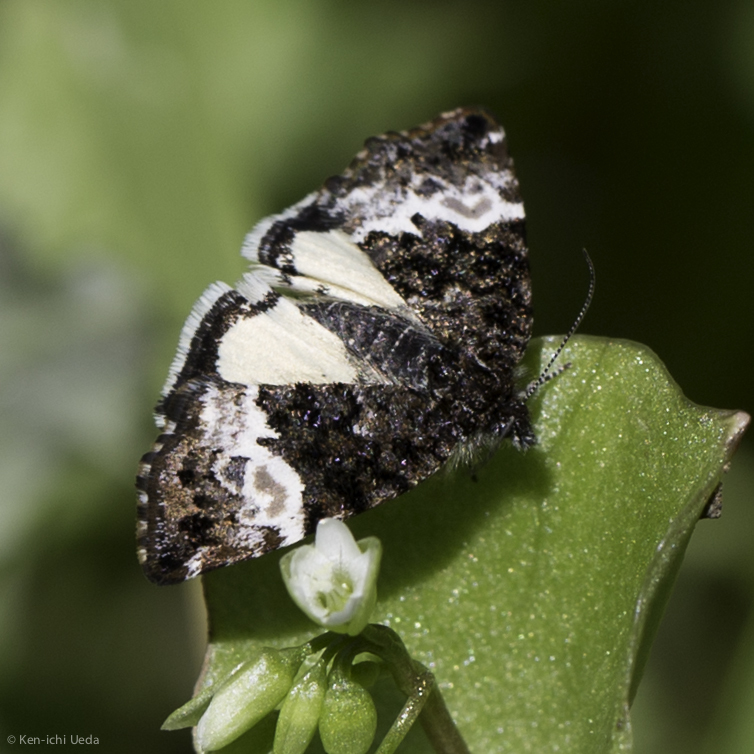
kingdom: Animalia
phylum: Arthropoda
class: Insecta
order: Lepidoptera
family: Noctuidae
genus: Annaphila
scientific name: Annaphila diva
